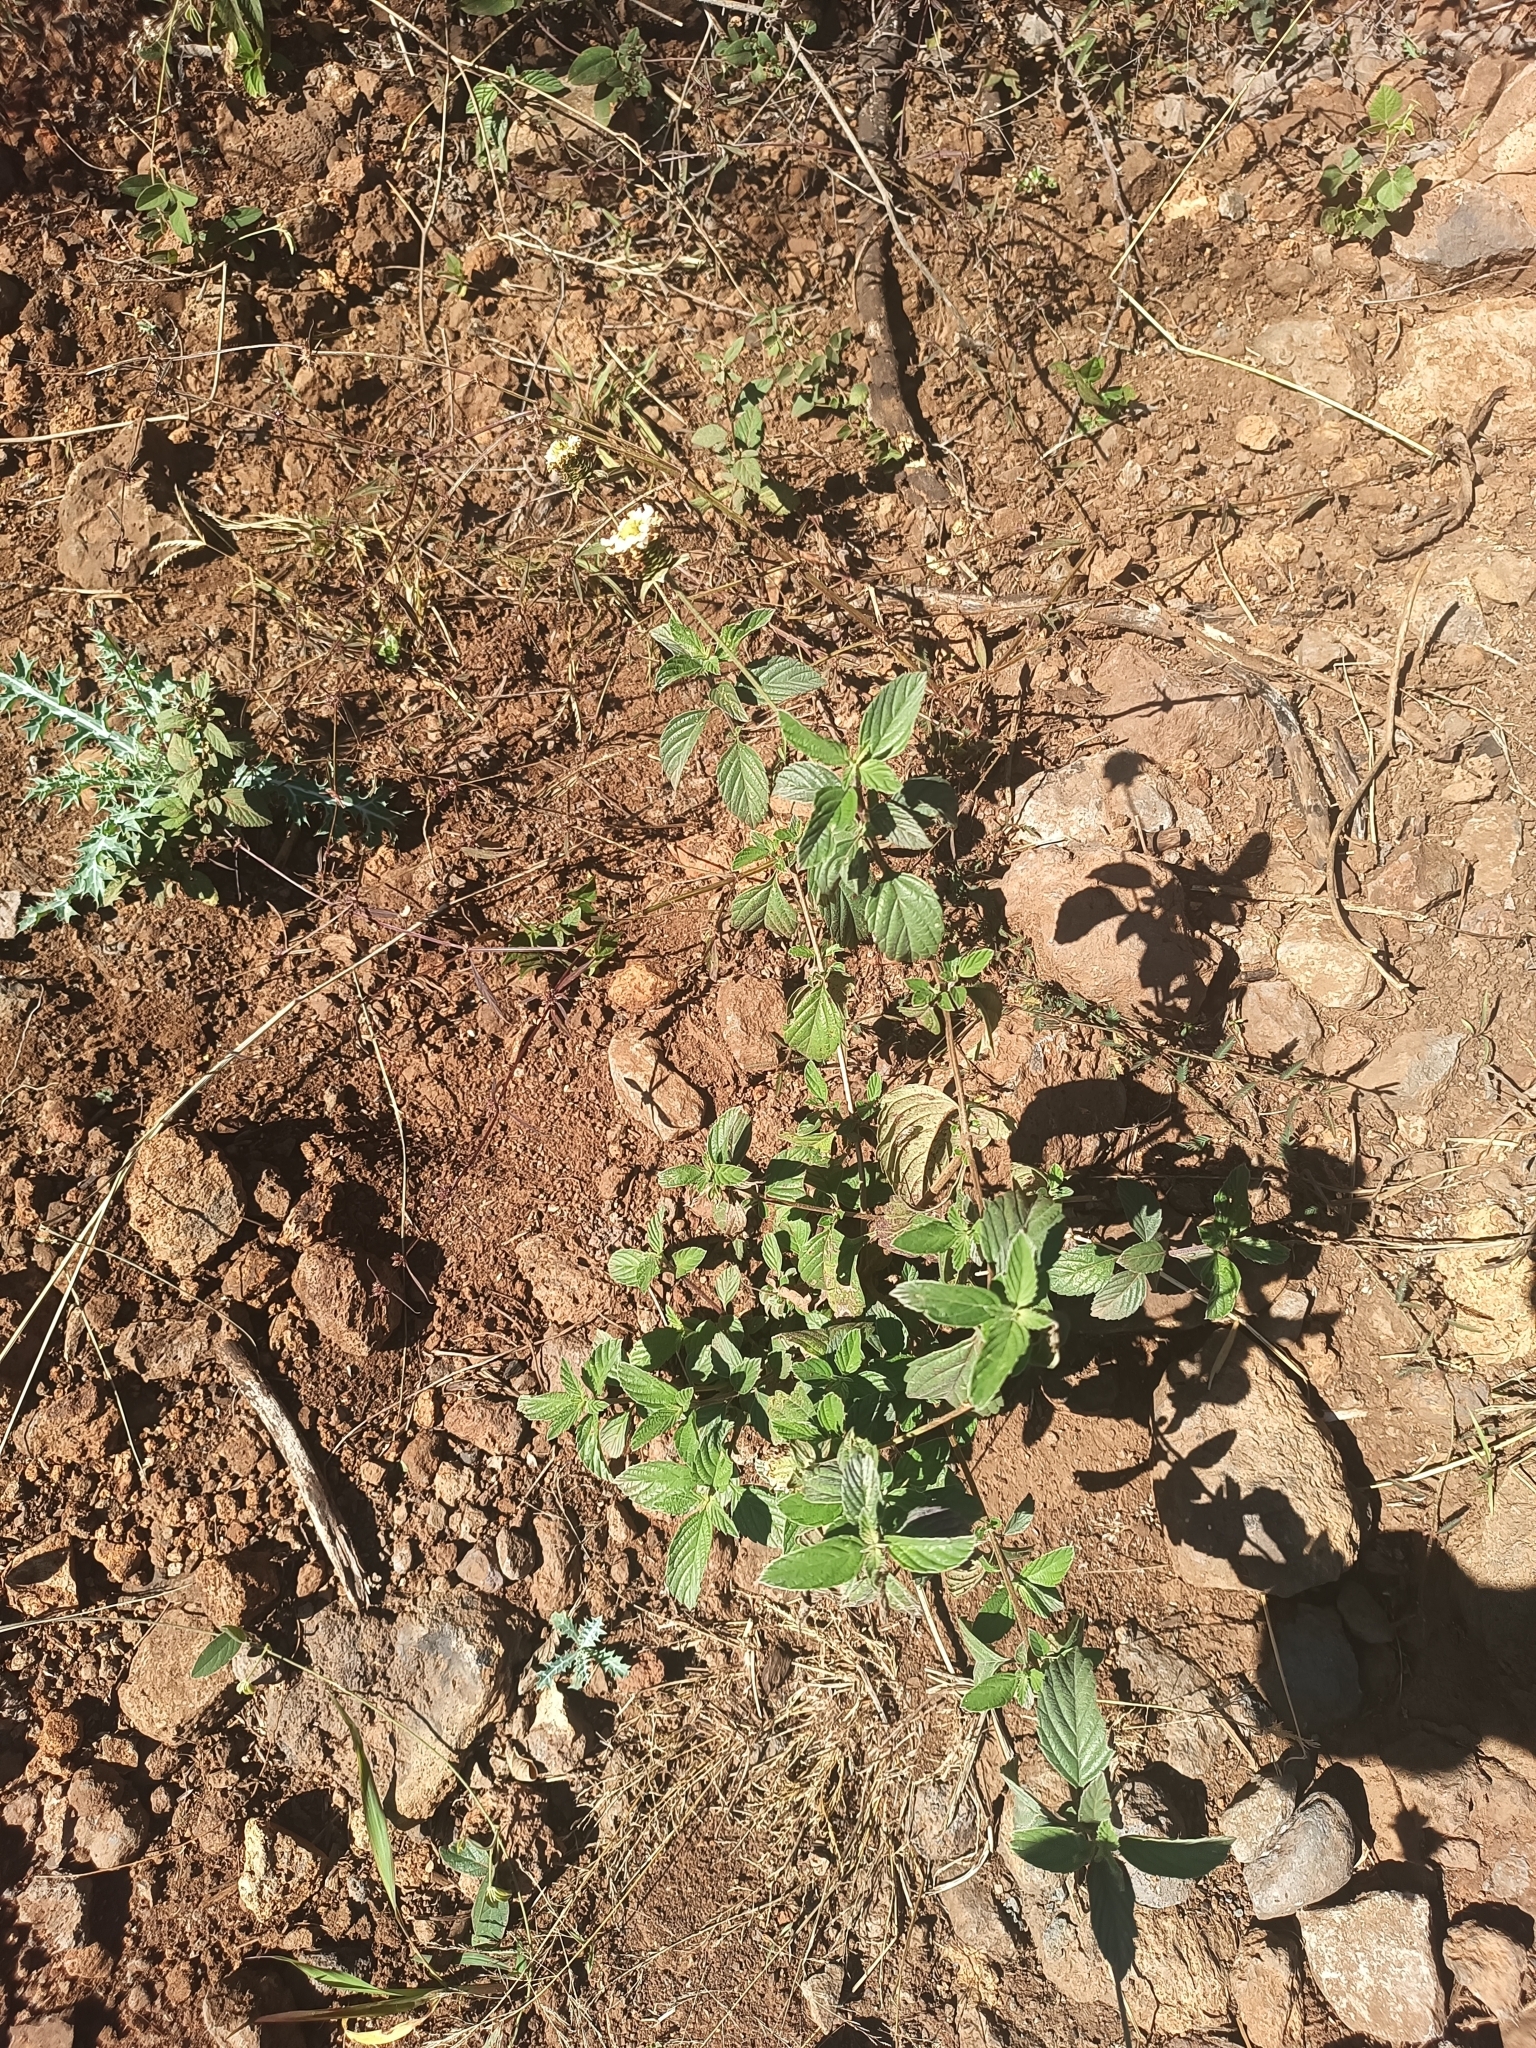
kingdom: Plantae
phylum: Tracheophyta
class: Magnoliopsida
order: Lamiales
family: Verbenaceae
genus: Lantana
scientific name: Lantana velutina
